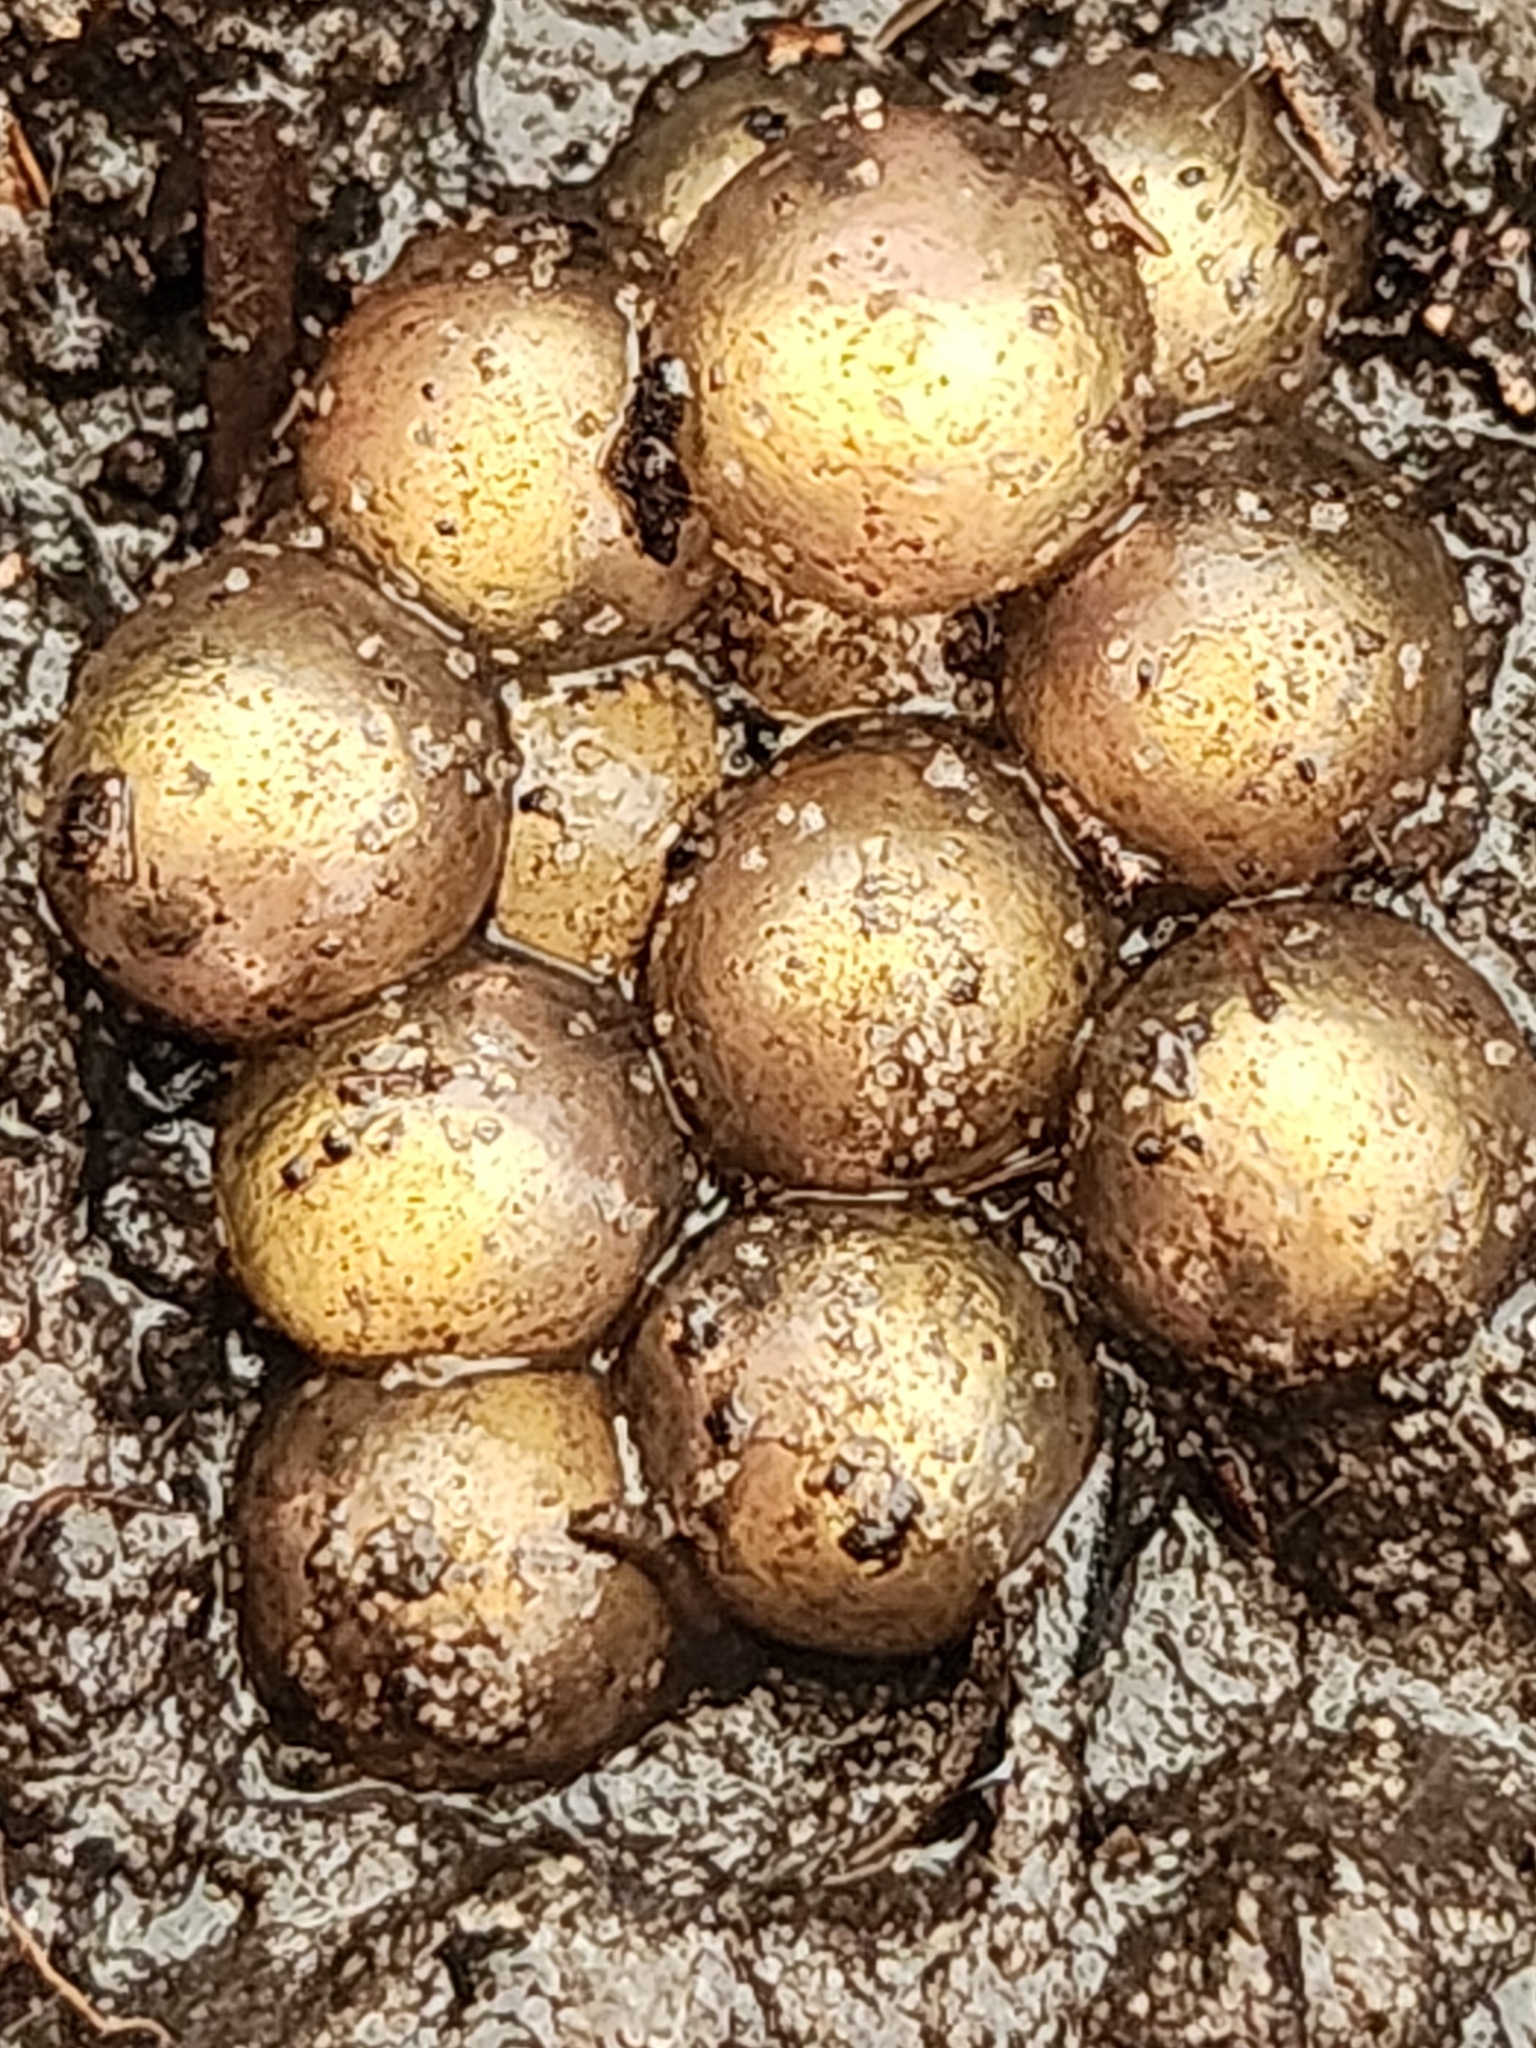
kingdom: Animalia
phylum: Chordata
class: Amphibia
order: Anura
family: Eleutherodactylidae
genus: Eleutherodactylus
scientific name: Eleutherodactylus planirostris
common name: Greenhouse frog
